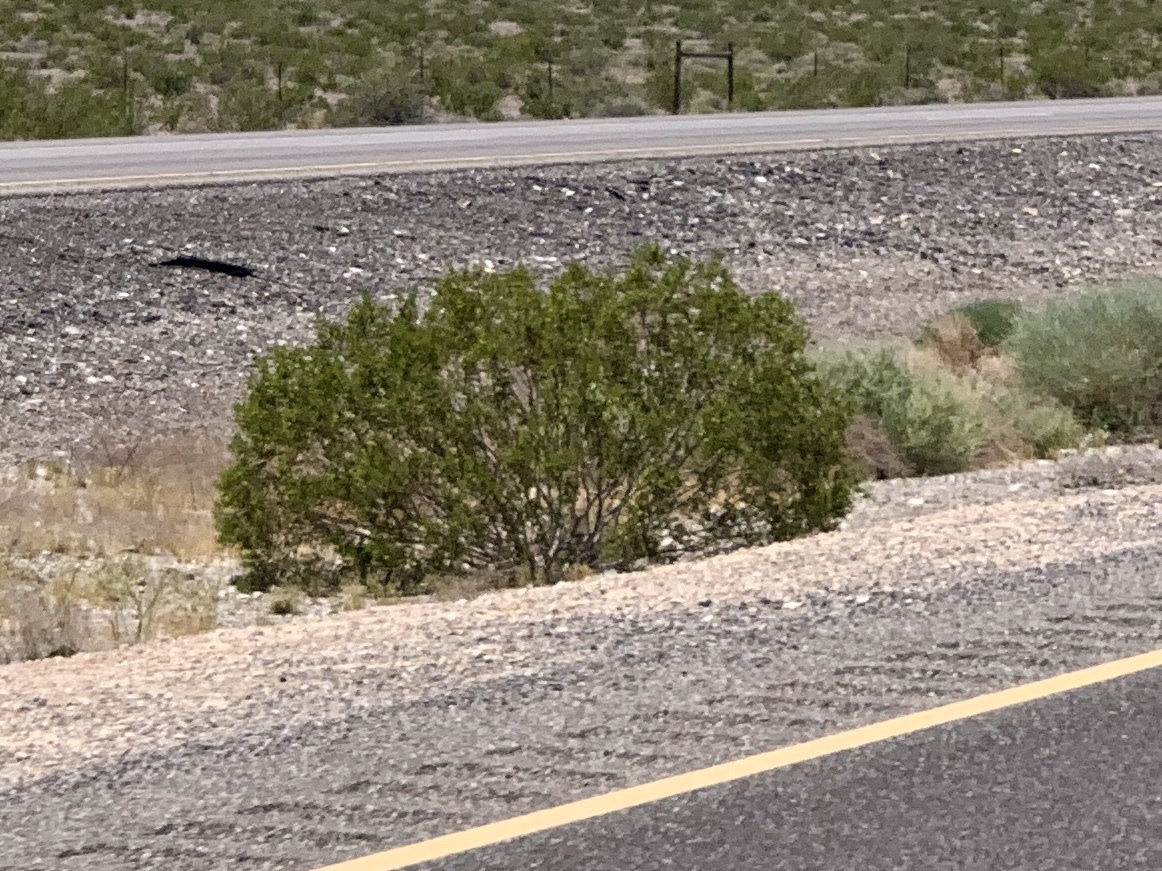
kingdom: Plantae
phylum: Tracheophyta
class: Magnoliopsida
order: Zygophyllales
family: Zygophyllaceae
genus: Larrea
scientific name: Larrea tridentata
